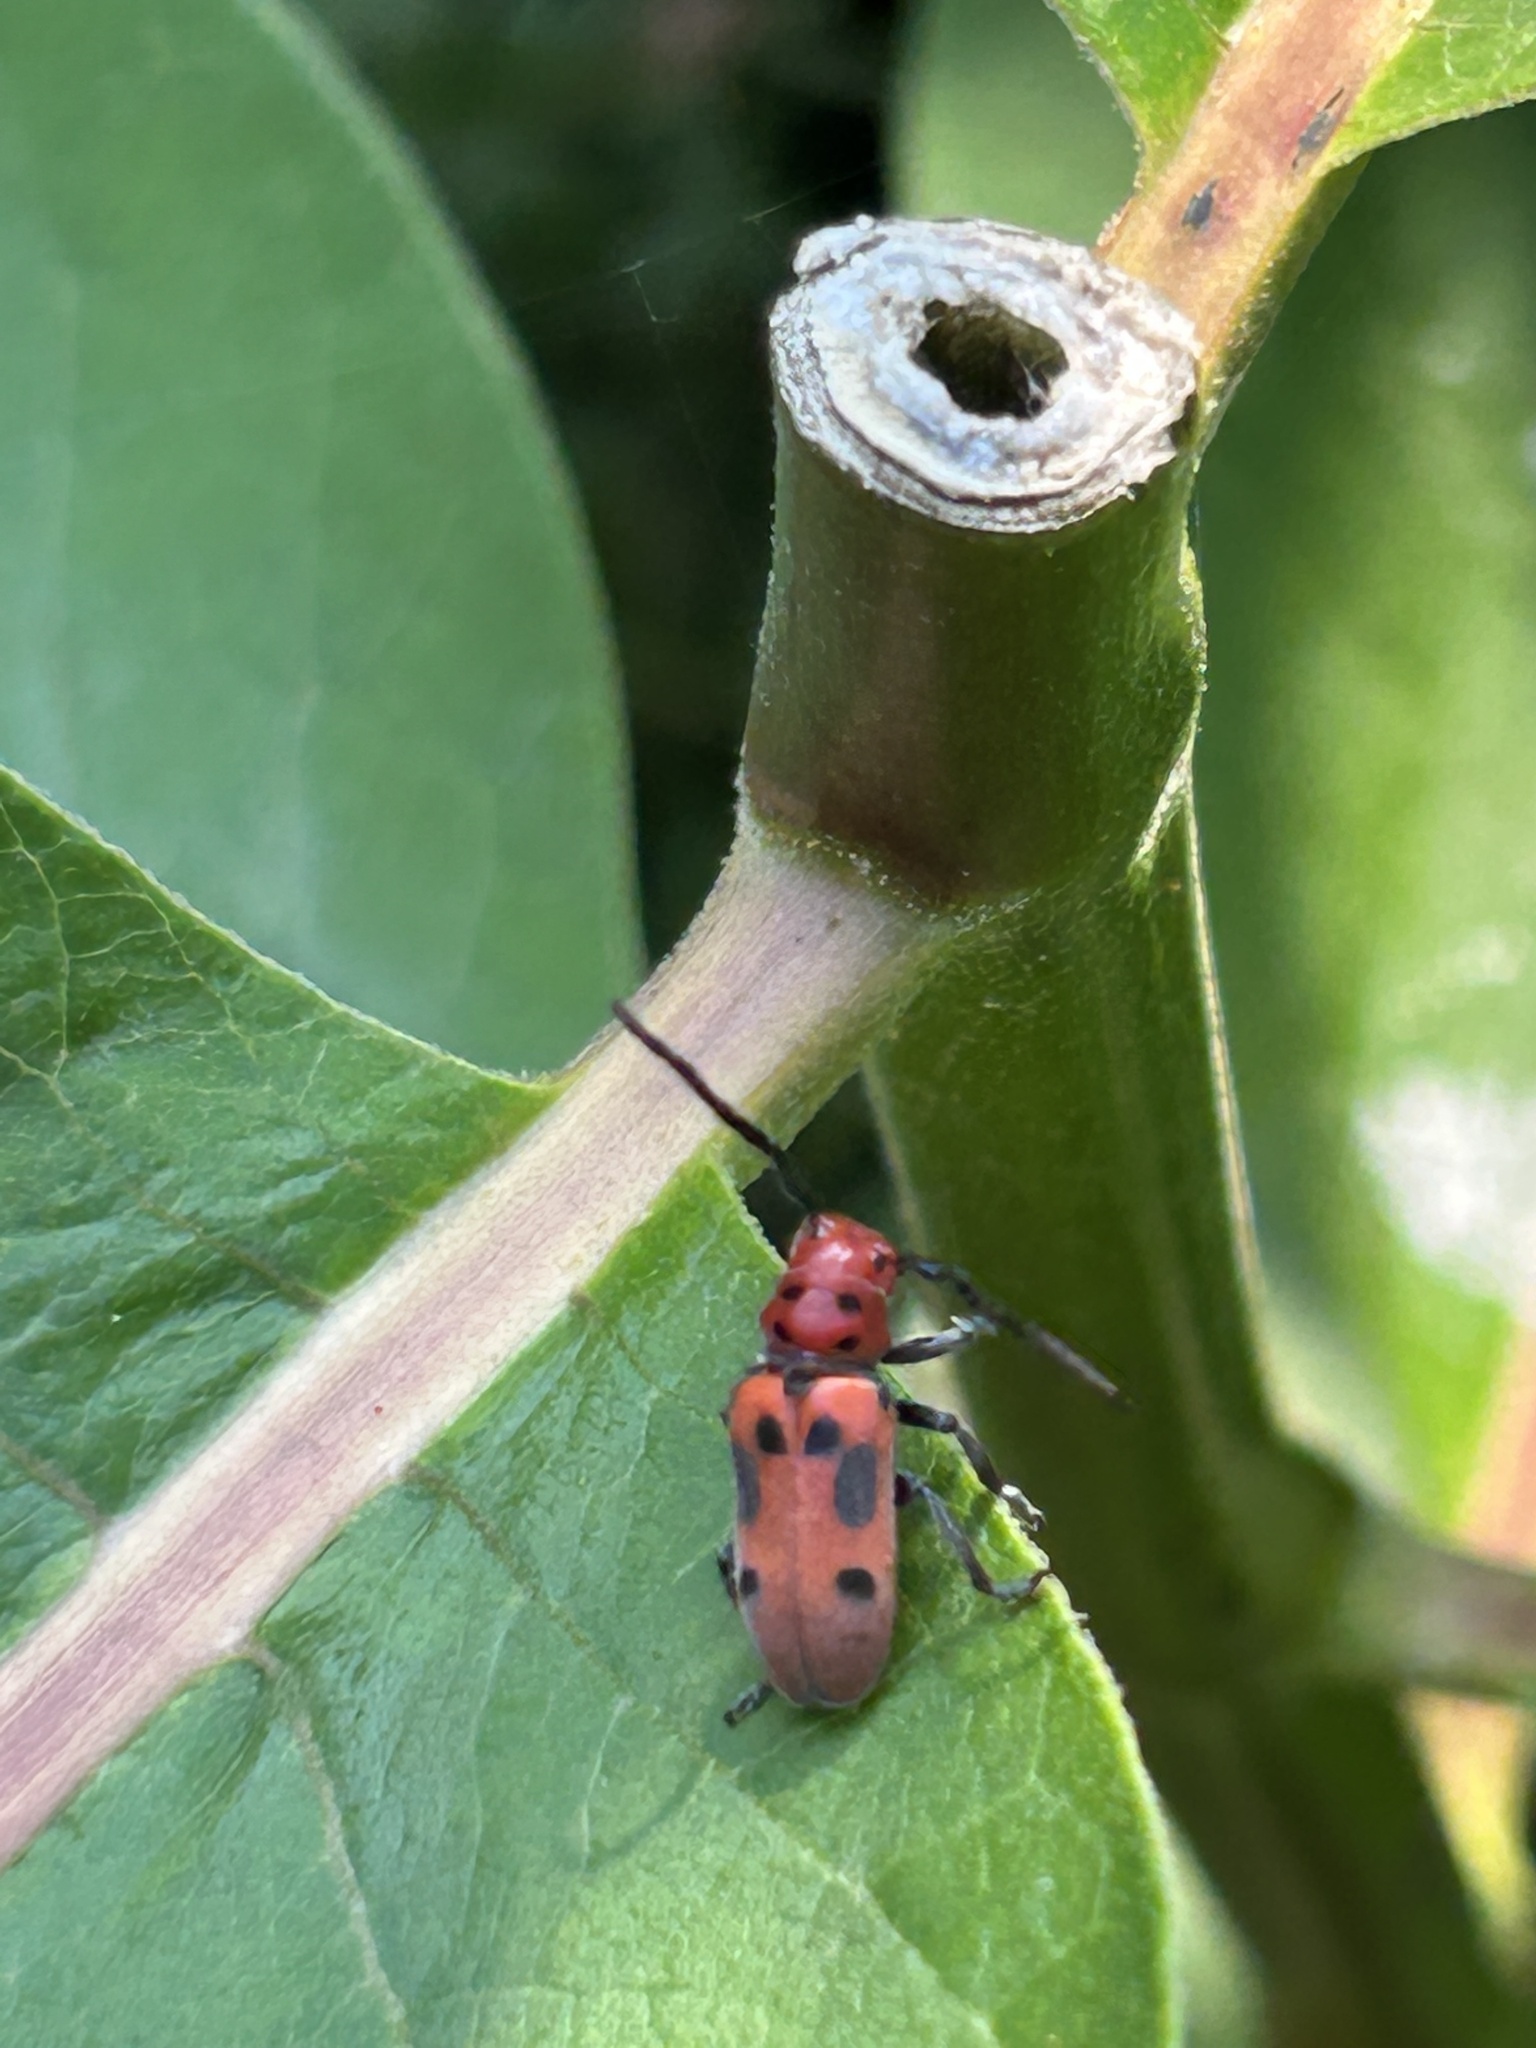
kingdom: Animalia
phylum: Arthropoda
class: Insecta
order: Coleoptera
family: Cerambycidae
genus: Tetraopes
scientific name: Tetraopes tetrophthalmus
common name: Red milkweed beetle
